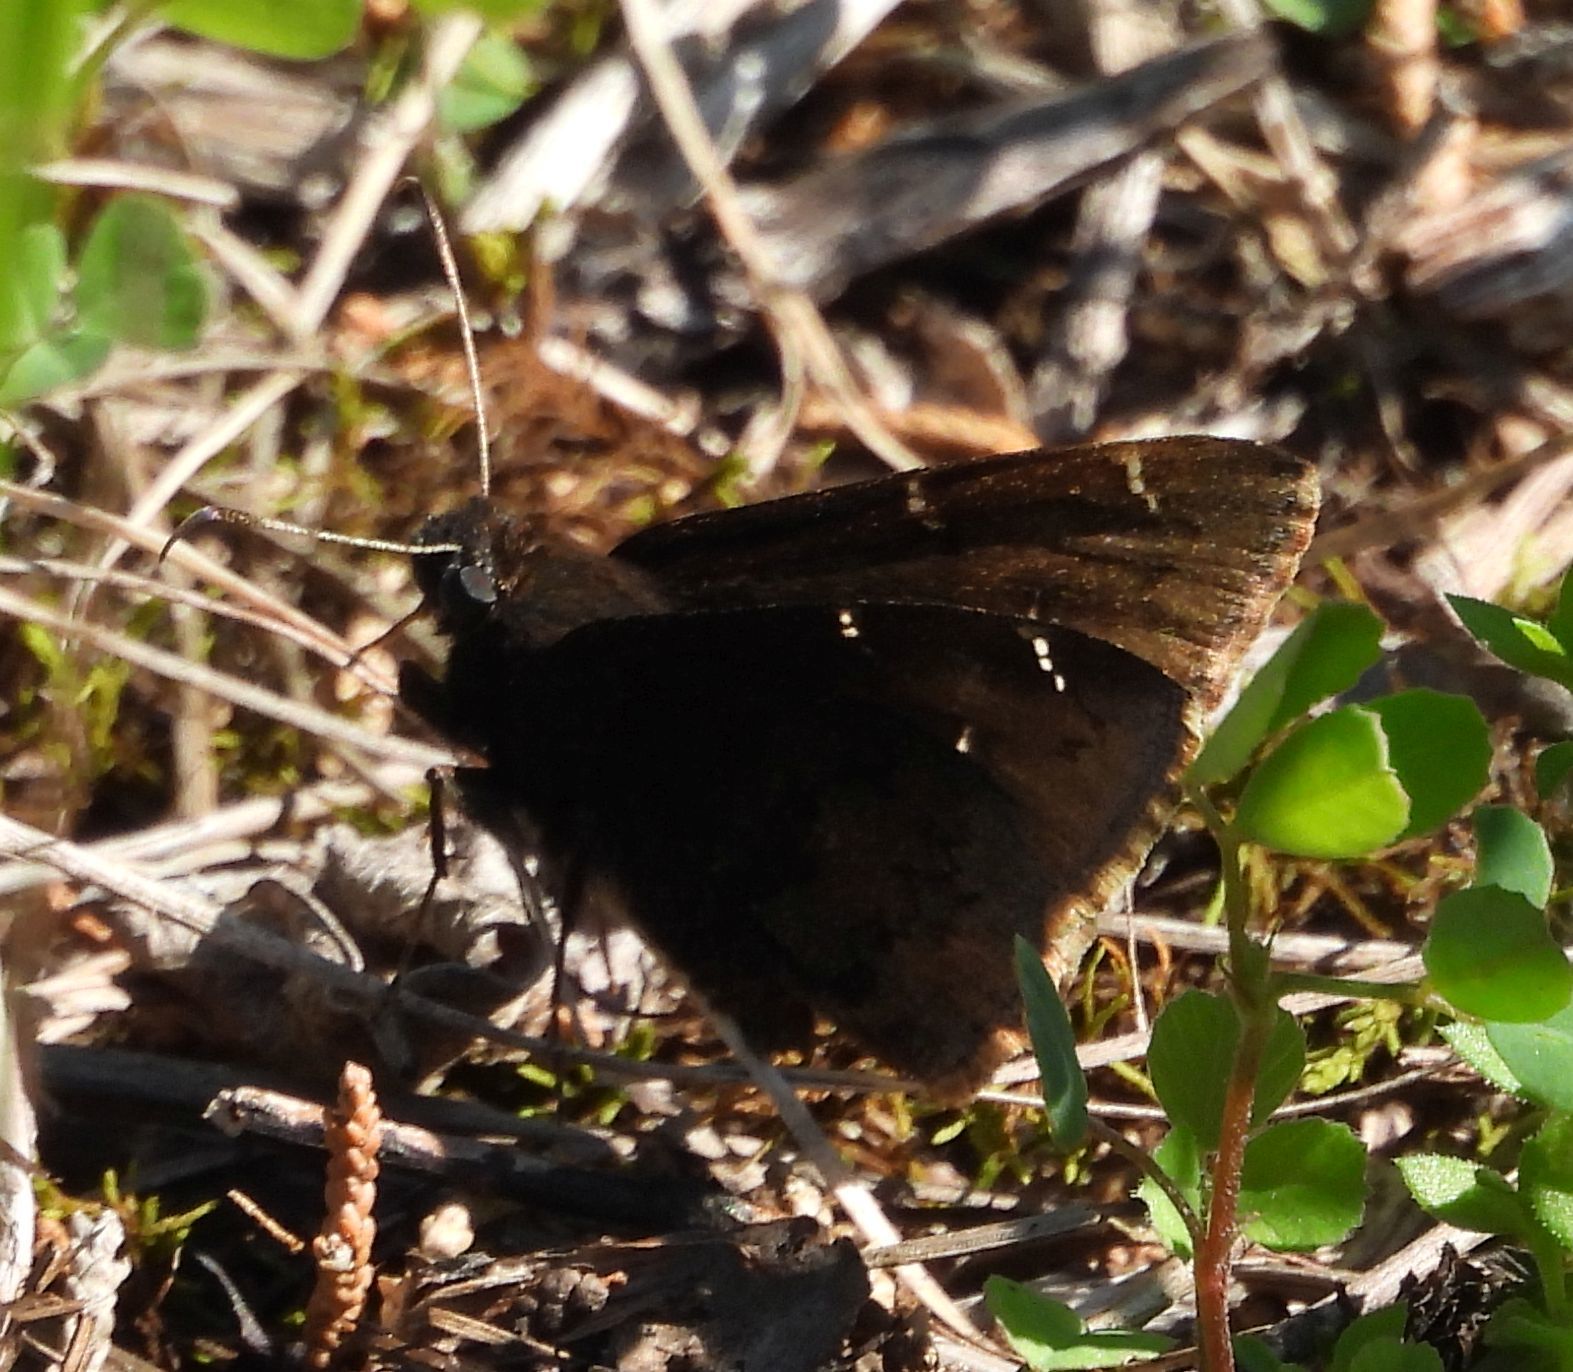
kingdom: Animalia
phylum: Arthropoda
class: Insecta
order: Lepidoptera
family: Hesperiidae
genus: Thorybes
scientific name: Thorybes pylades
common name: Northern cloudywing
